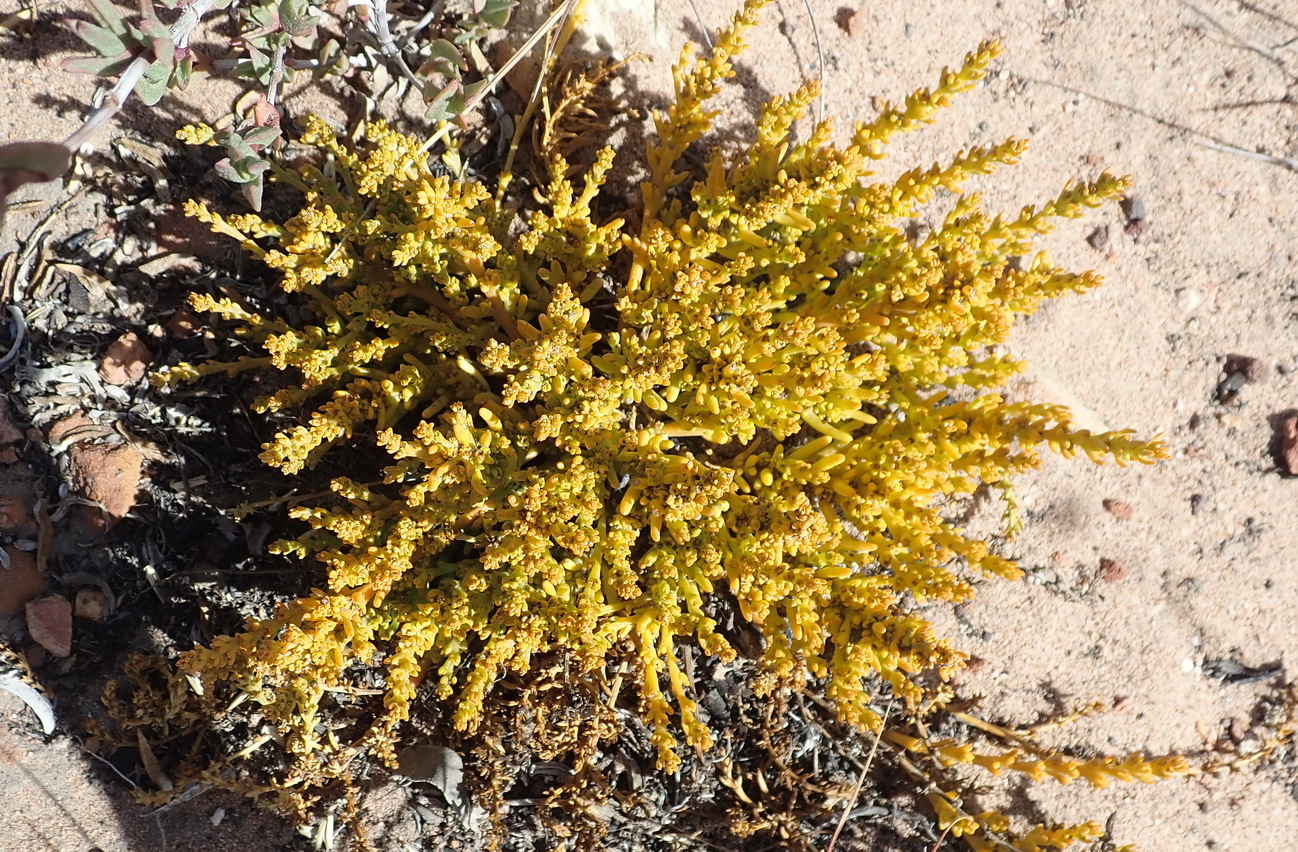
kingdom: Plantae
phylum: Tracheophyta
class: Magnoliopsida
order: Santalales
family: Thesiaceae
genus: Thesium
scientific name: Thesium fragile
